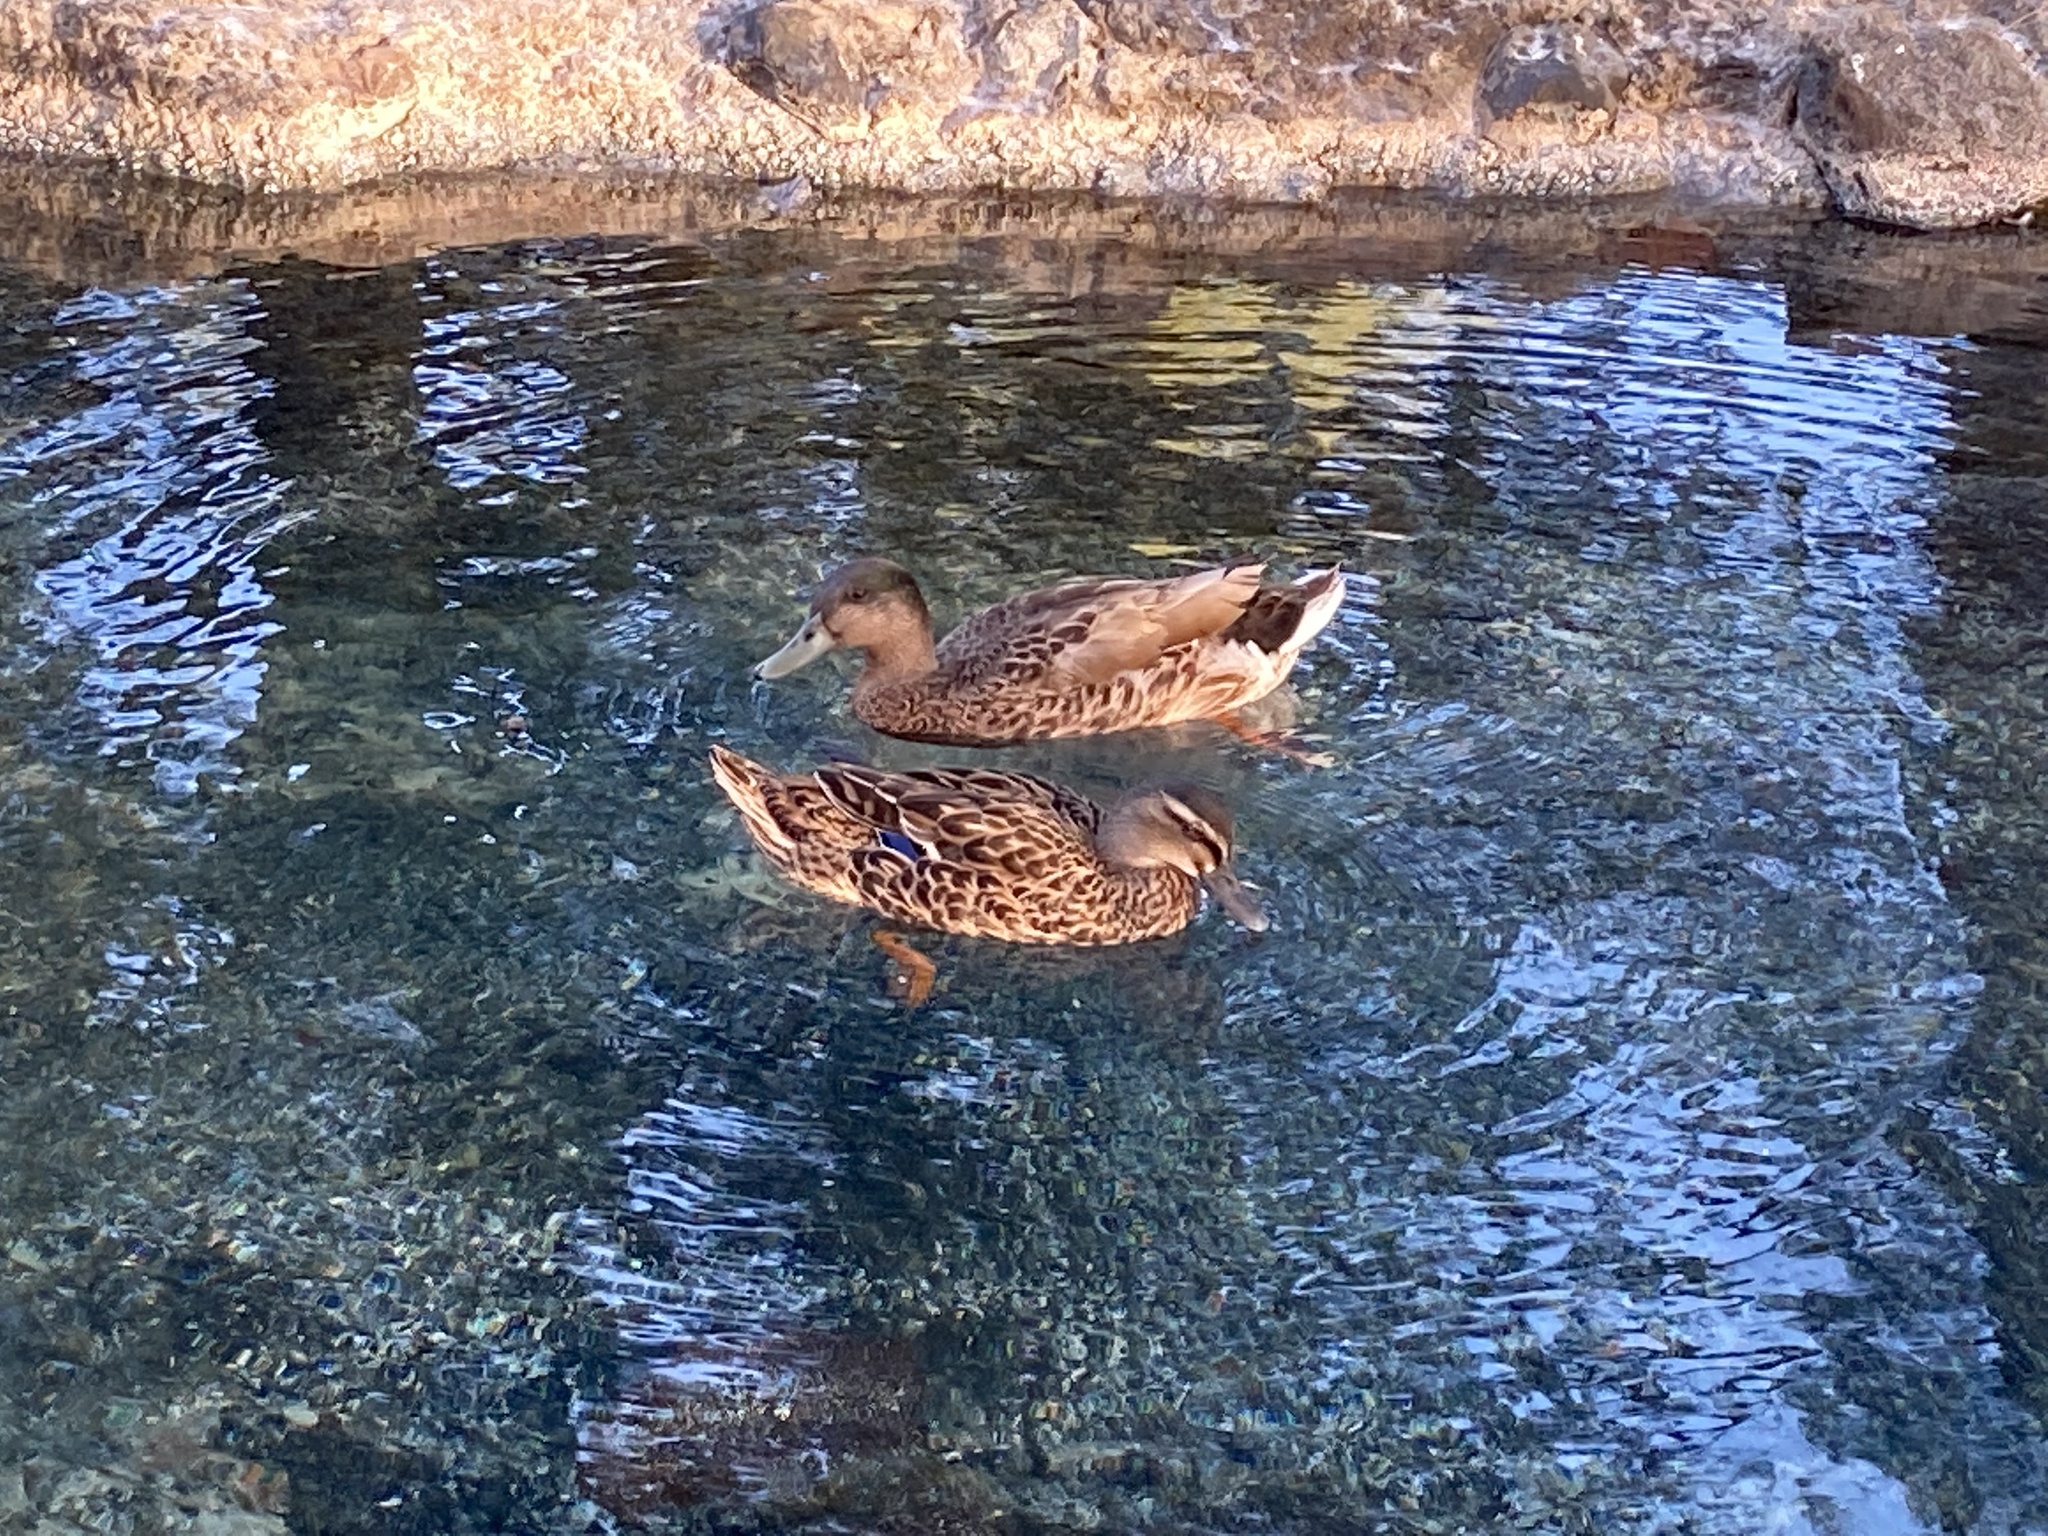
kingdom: Animalia
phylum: Chordata
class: Aves
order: Anseriformes
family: Anatidae
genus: Anas
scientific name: Anas
